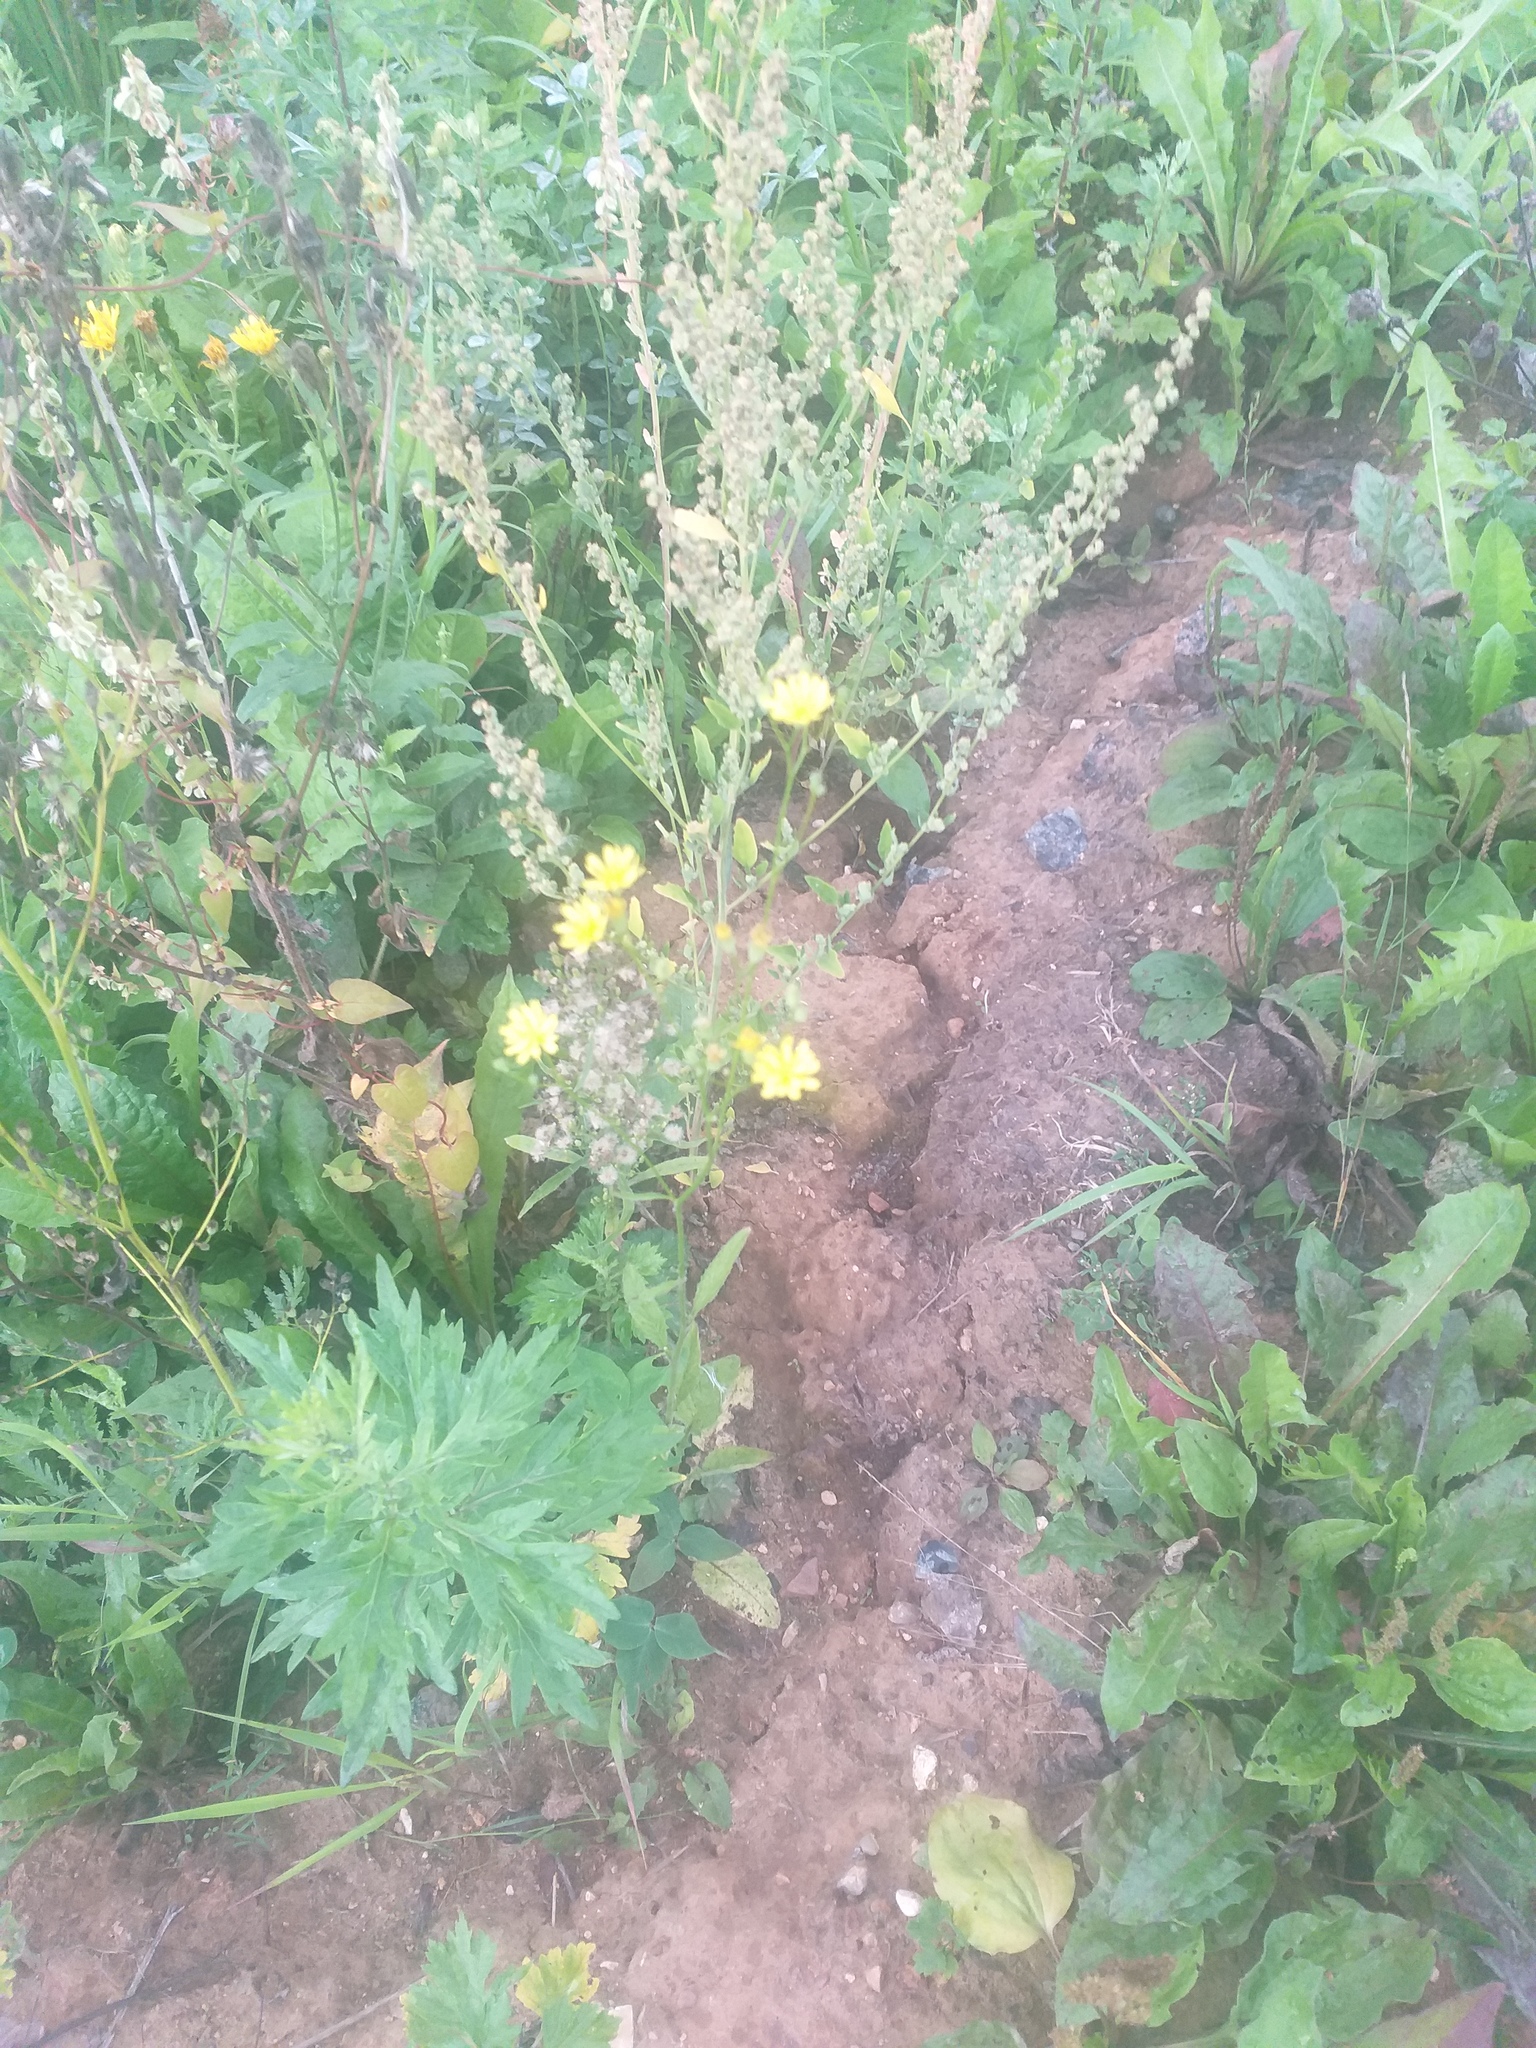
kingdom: Plantae
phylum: Tracheophyta
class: Magnoliopsida
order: Asterales
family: Asteraceae
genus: Lapsana
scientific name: Lapsana communis
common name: Nipplewort
